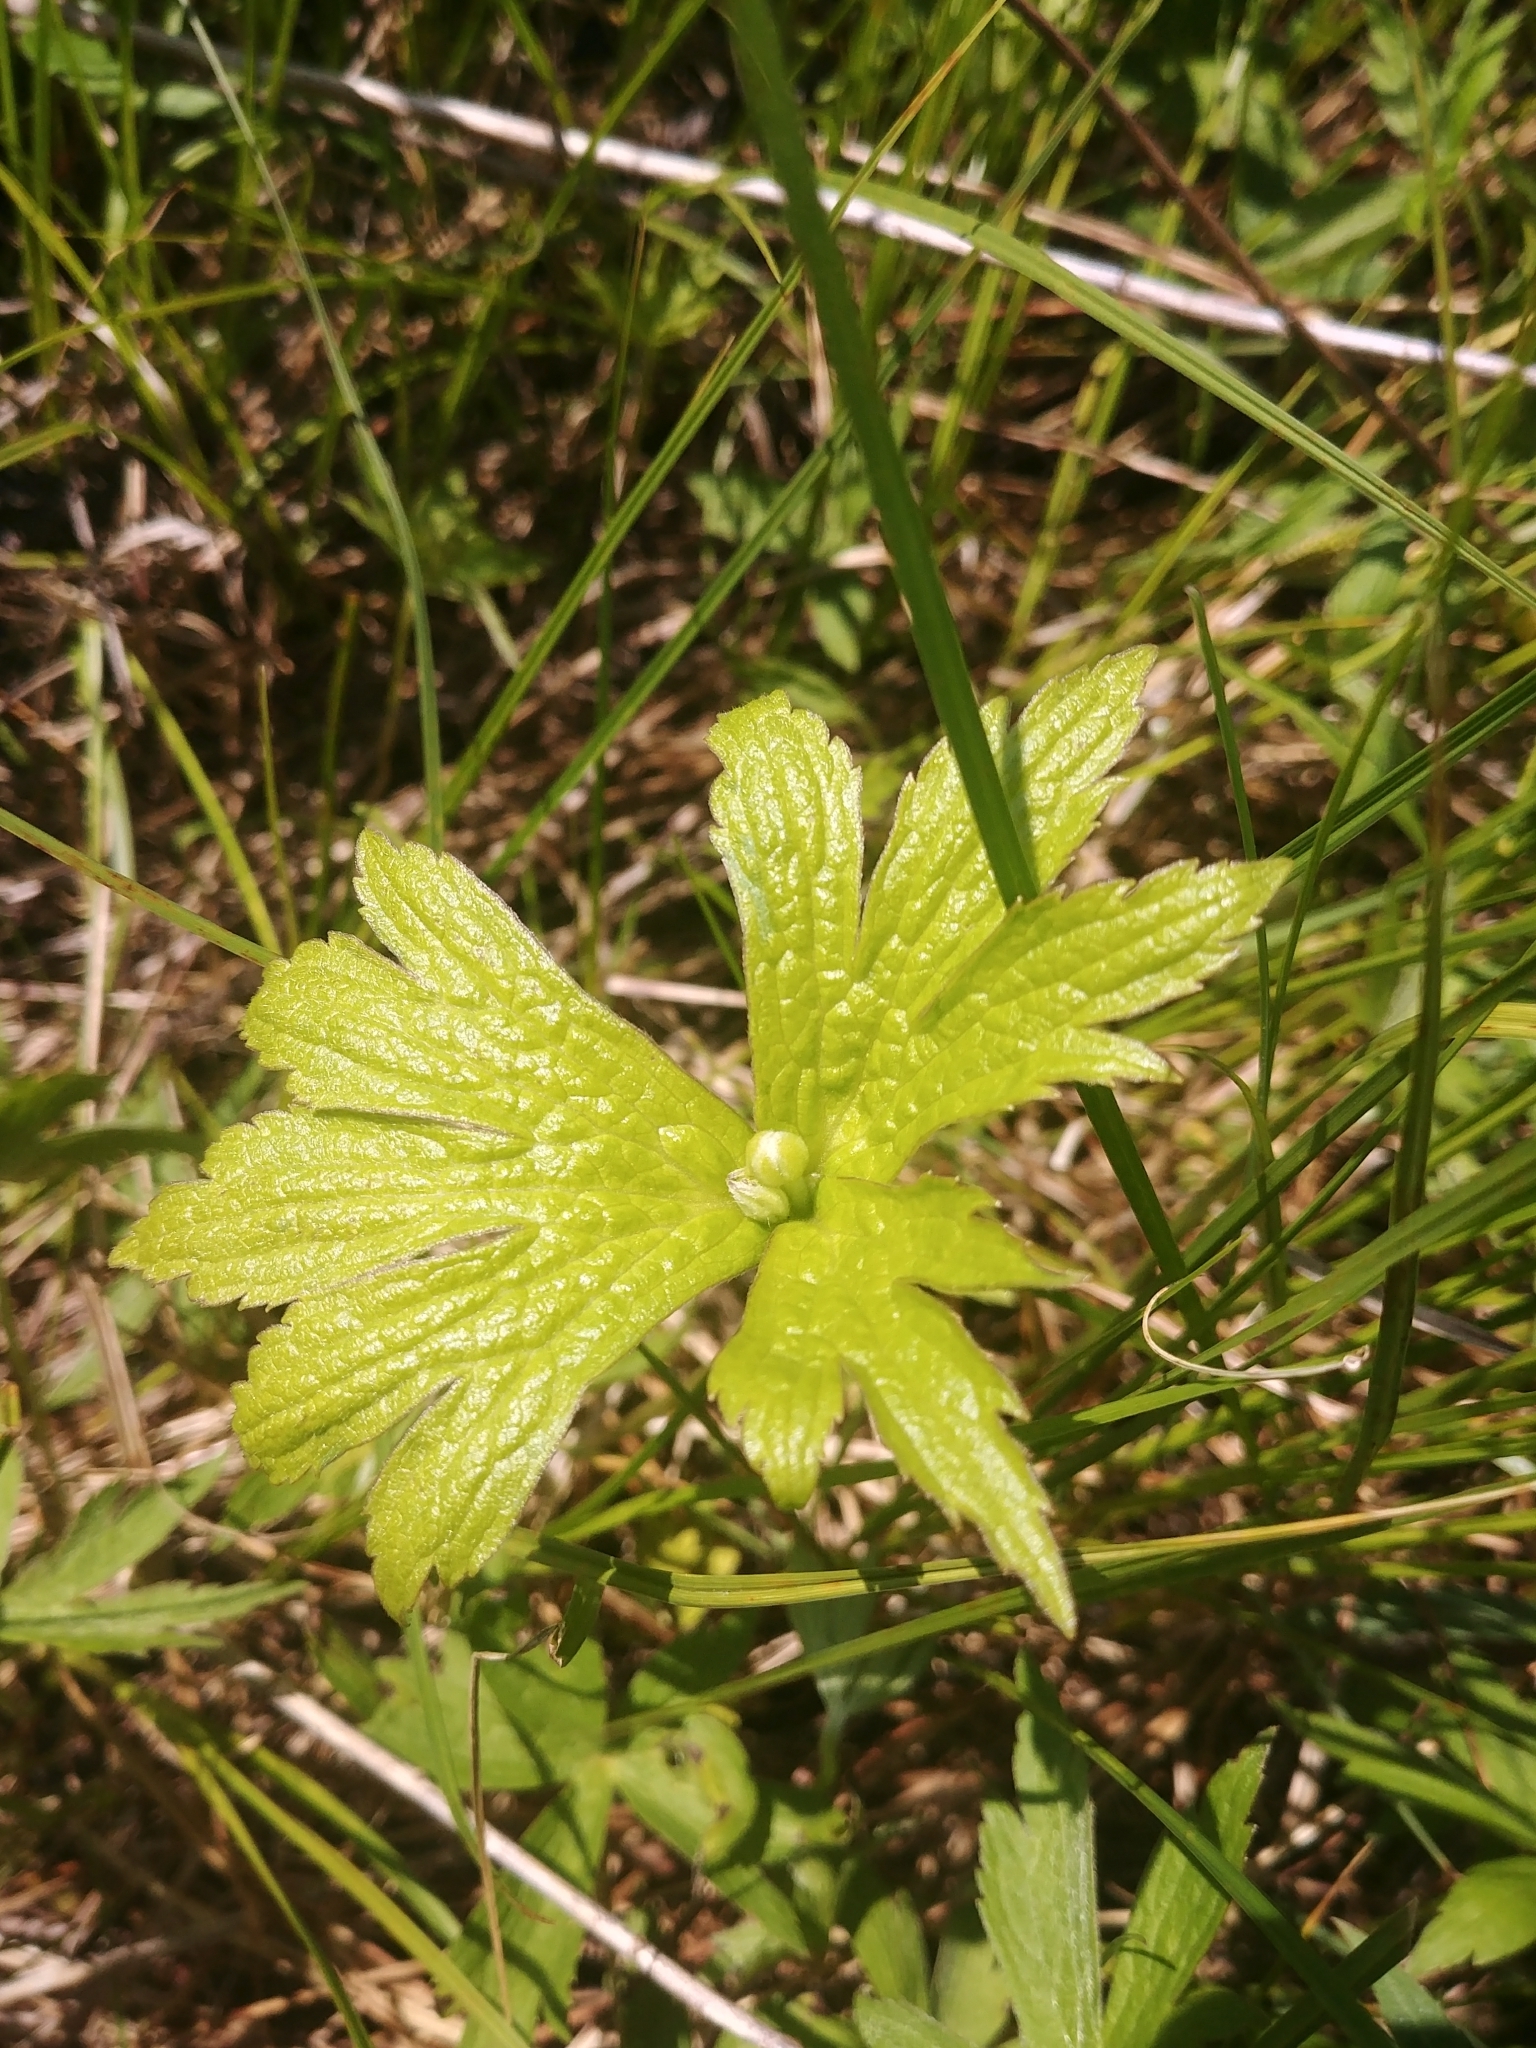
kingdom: Plantae
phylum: Tracheophyta
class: Magnoliopsida
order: Ranunculales
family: Ranunculaceae
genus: Anemonastrum
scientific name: Anemonastrum canadense
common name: Canada anemone
